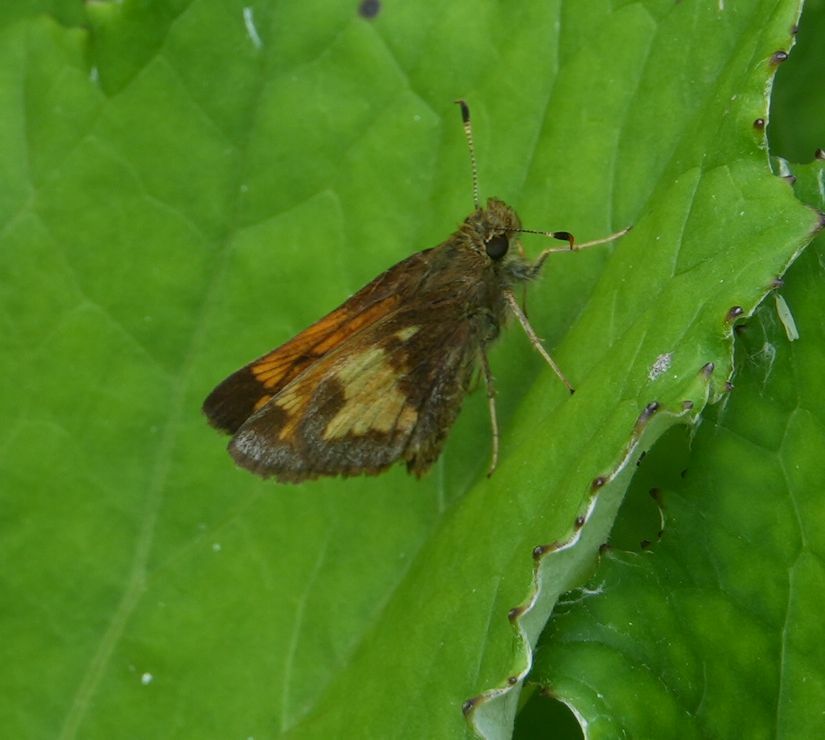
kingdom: Animalia
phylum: Arthropoda
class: Insecta
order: Lepidoptera
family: Hesperiidae
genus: Lon
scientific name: Lon hobomok
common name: Hobomok skipper
